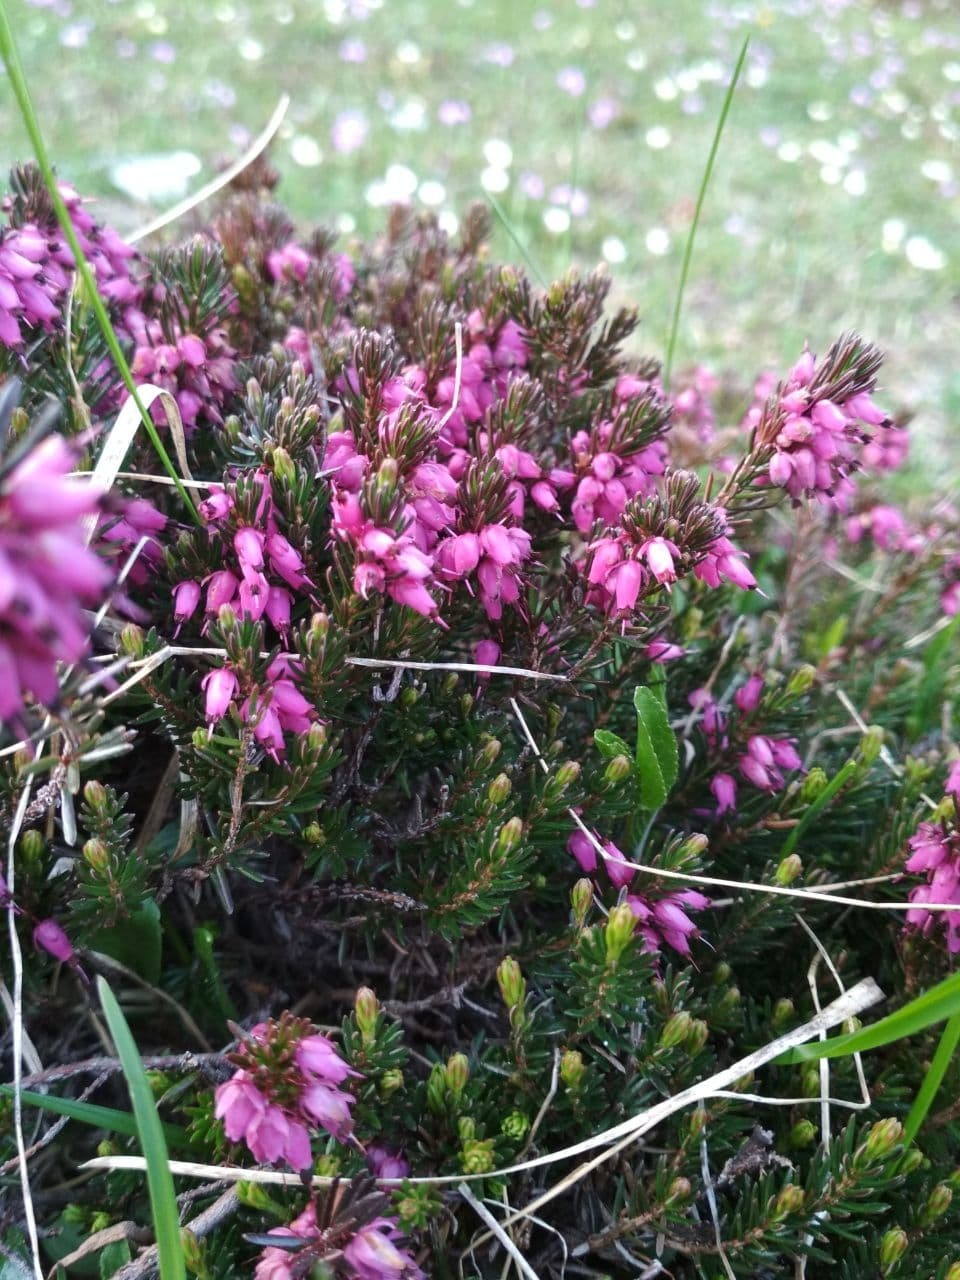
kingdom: Plantae
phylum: Tracheophyta
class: Magnoliopsida
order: Ericales
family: Ericaceae
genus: Erica
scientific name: Erica carnea
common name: Winter heath
